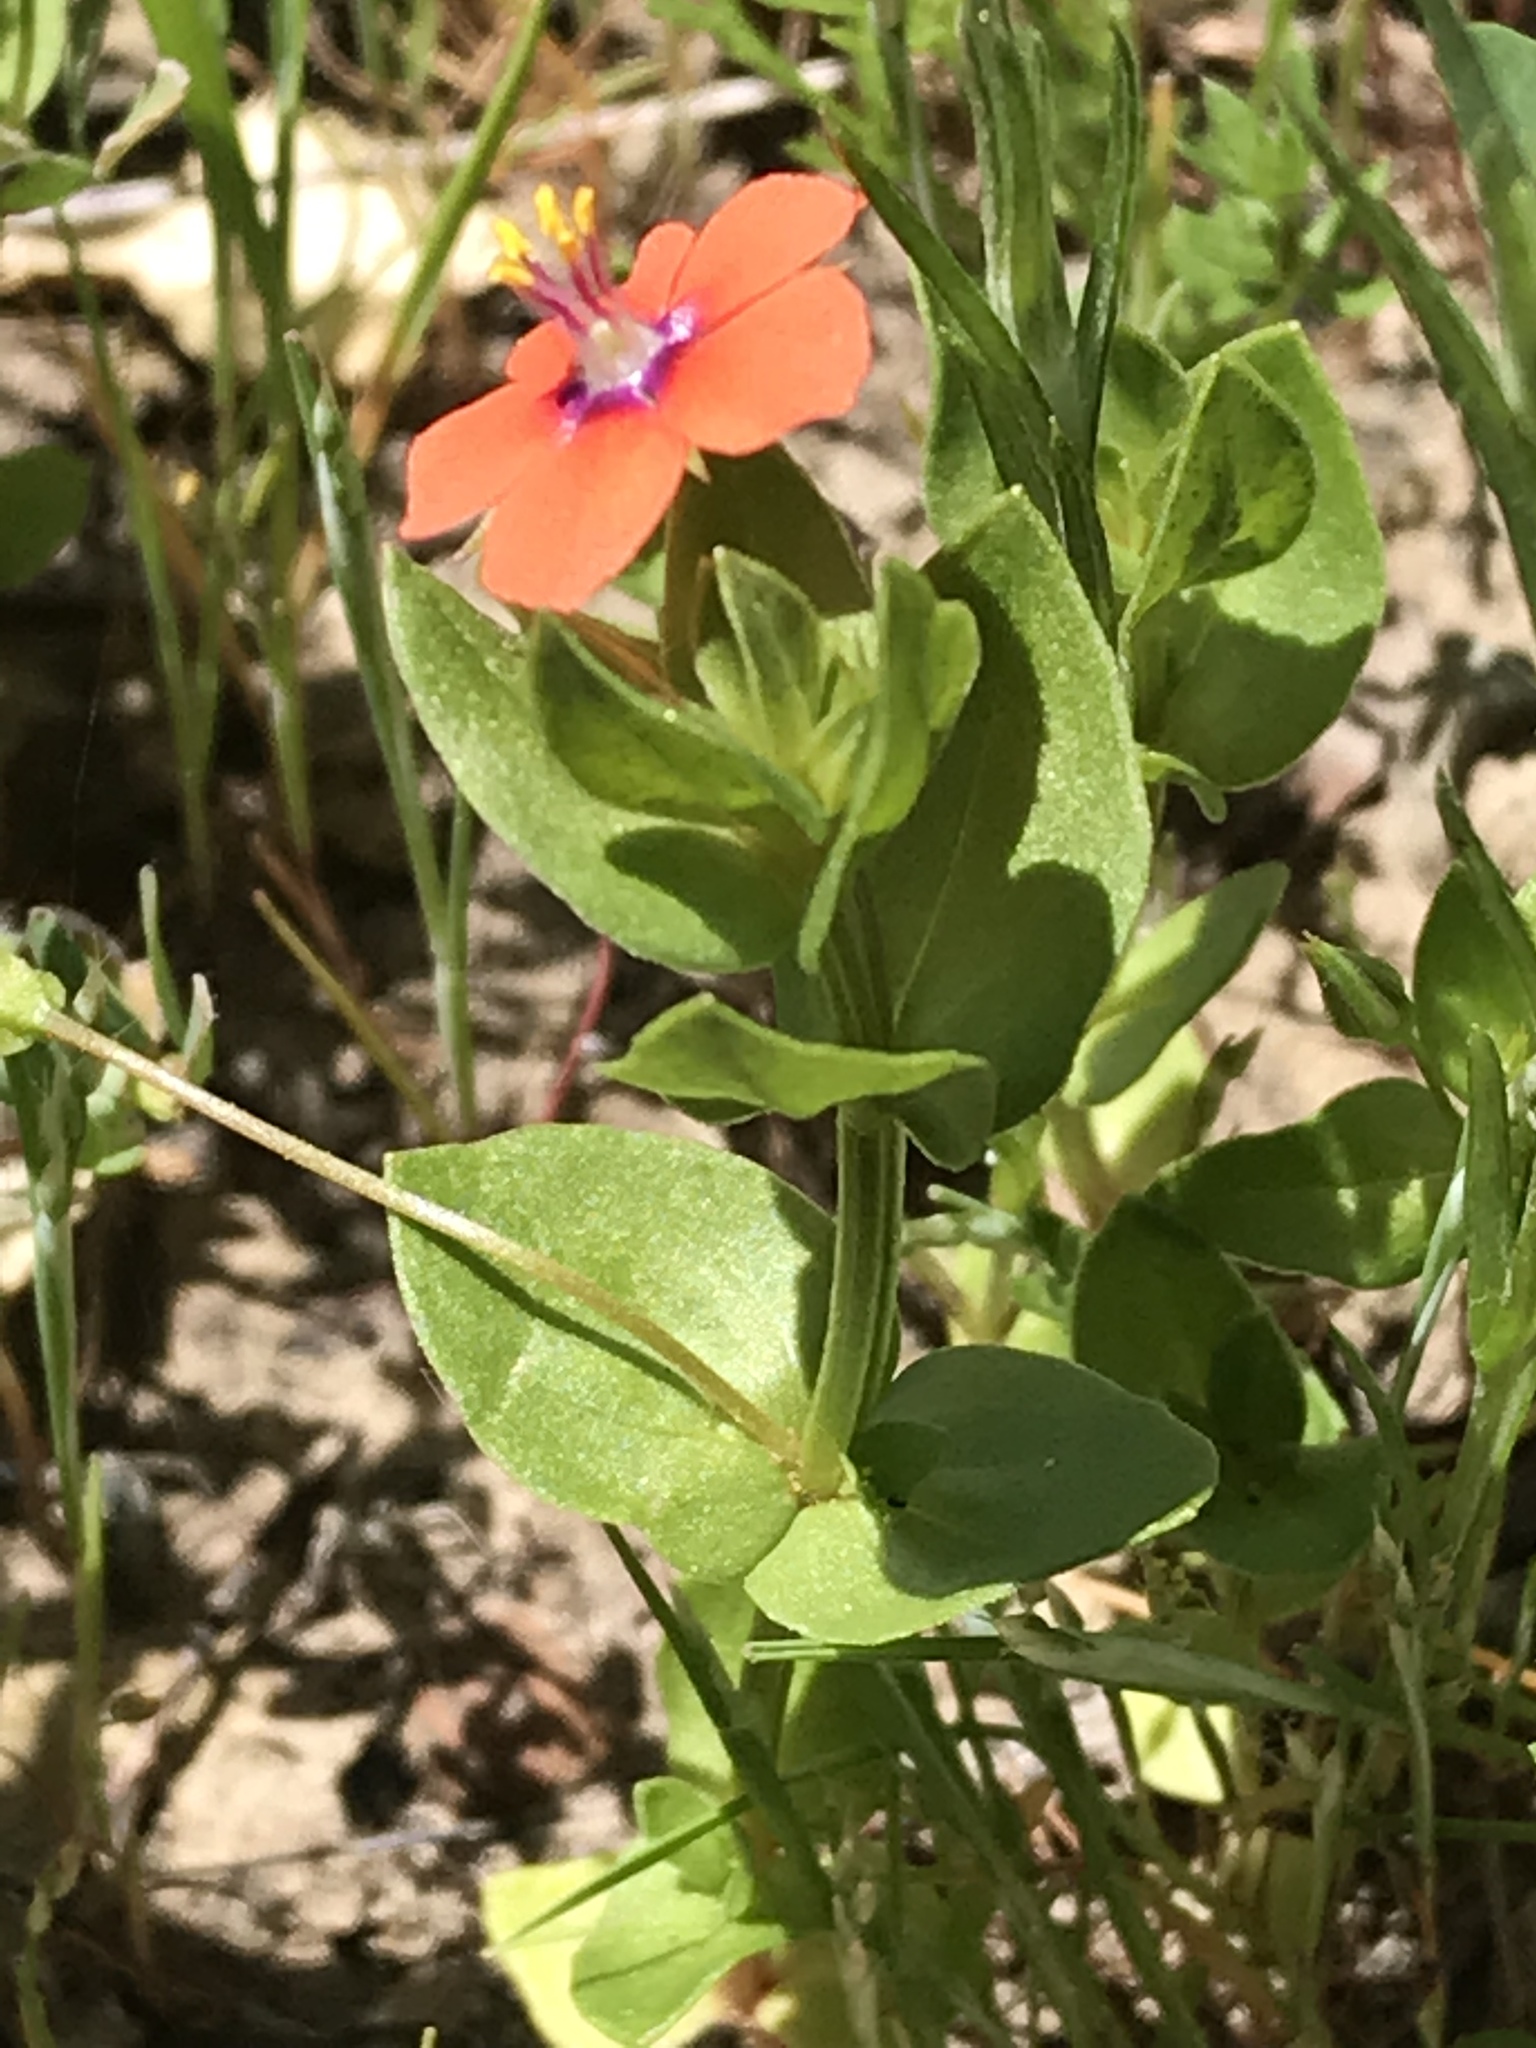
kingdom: Plantae
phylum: Tracheophyta
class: Magnoliopsida
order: Ericales
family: Primulaceae
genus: Lysimachia
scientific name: Lysimachia arvensis
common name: Scarlet pimpernel
